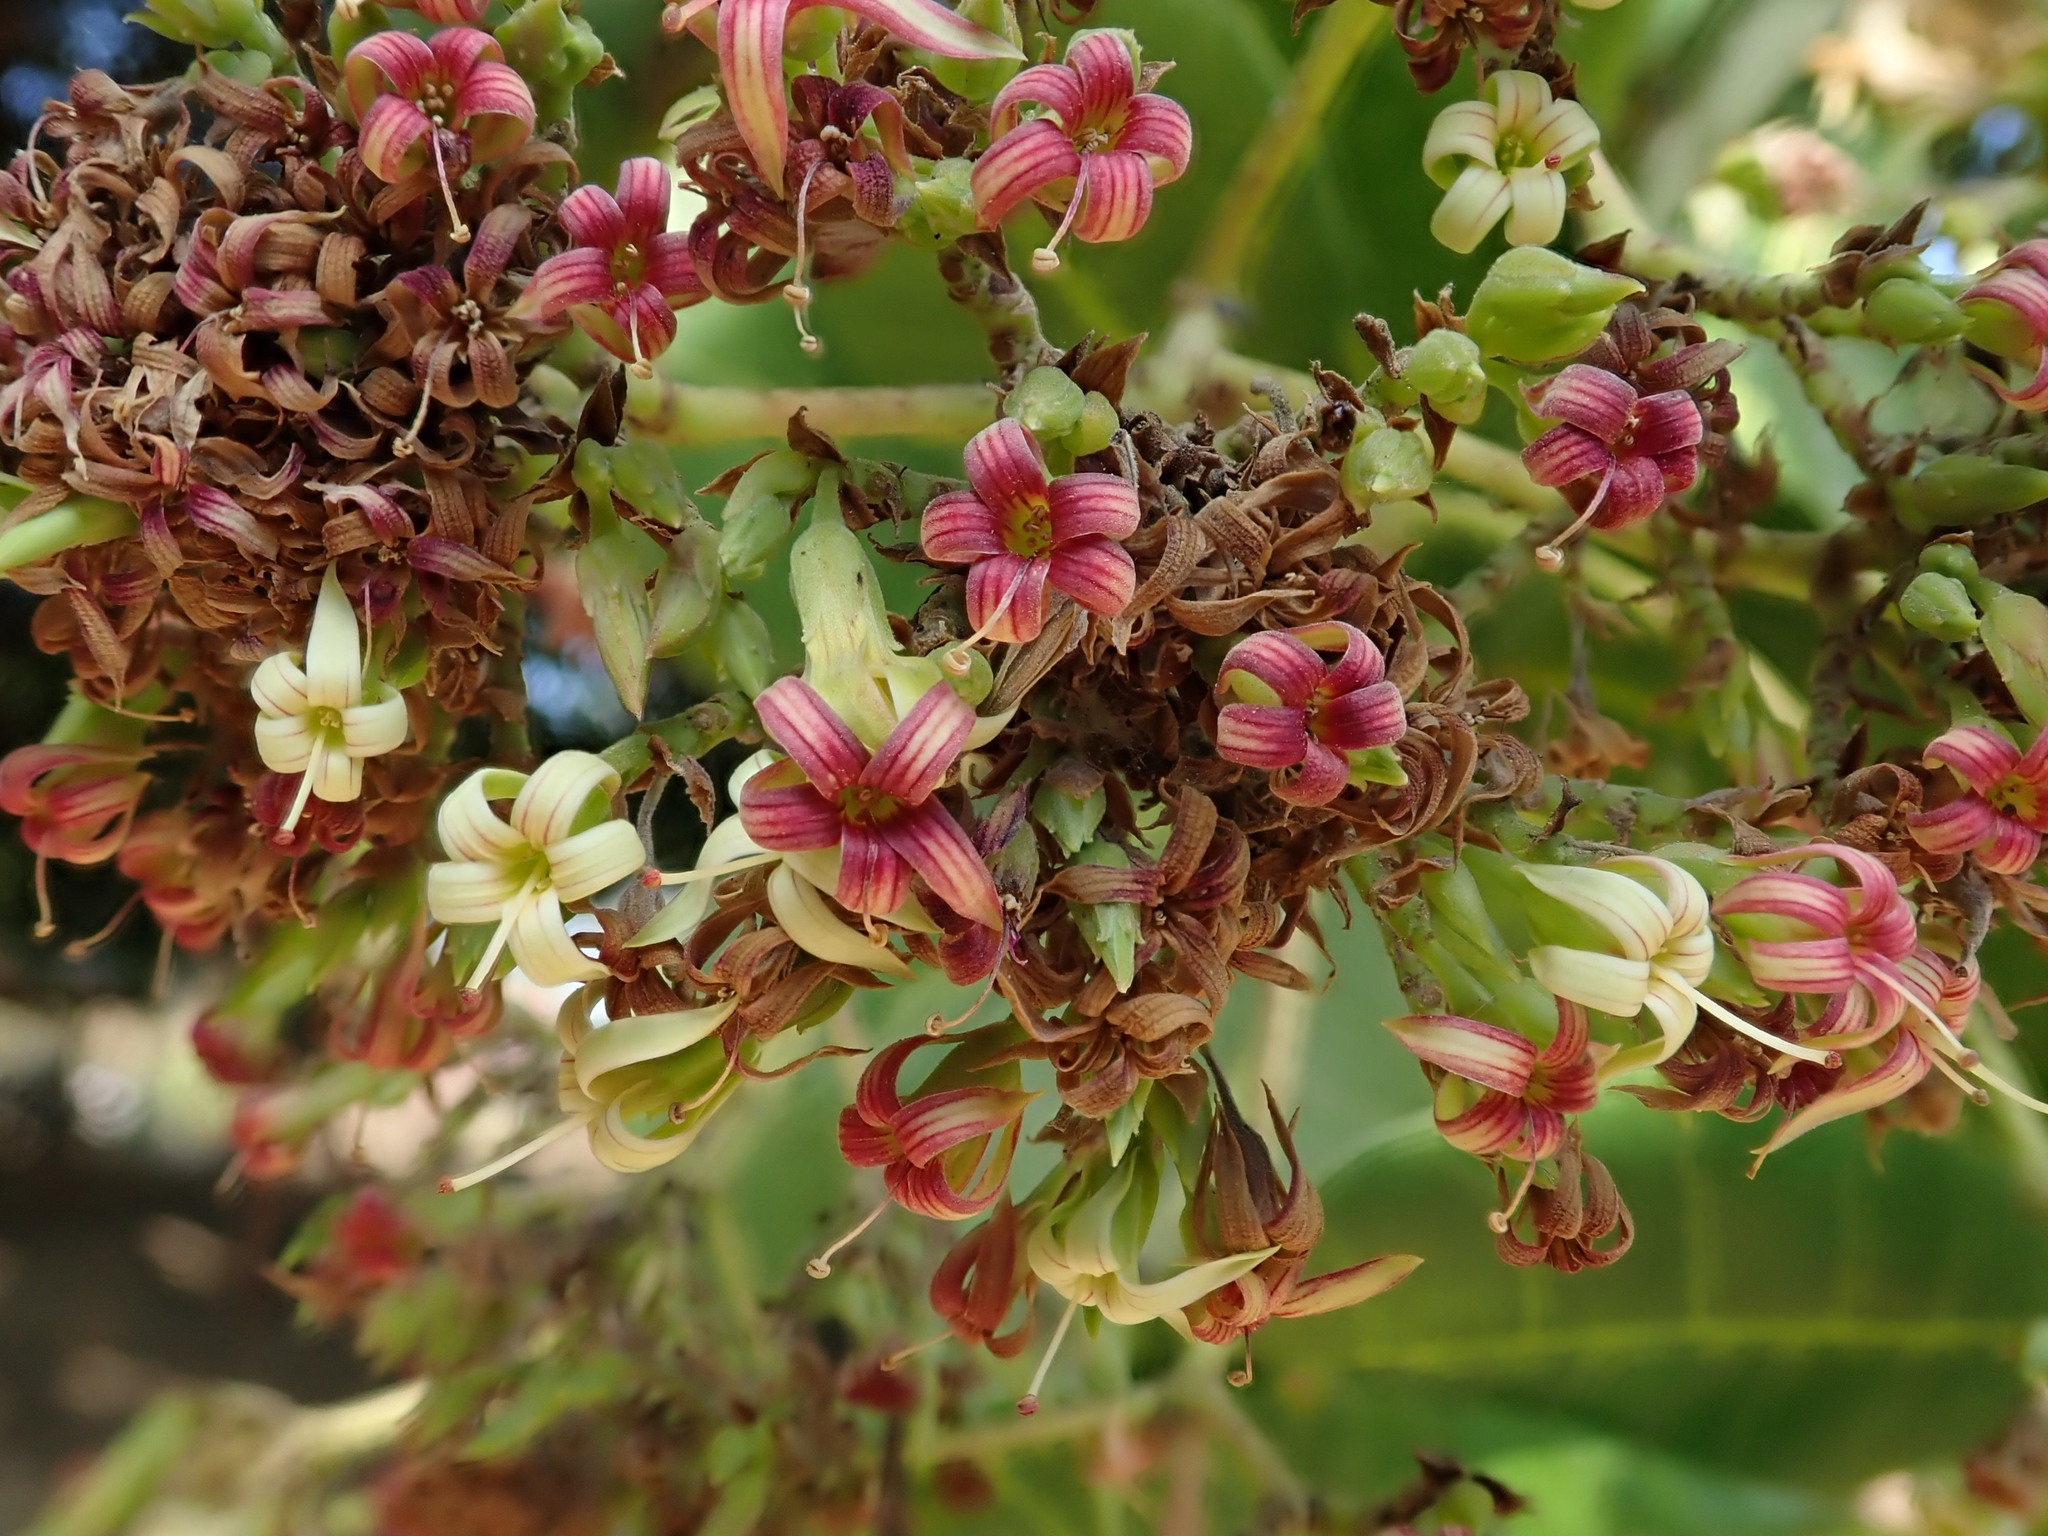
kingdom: Plantae
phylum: Tracheophyta
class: Magnoliopsida
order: Sapindales
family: Anacardiaceae
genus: Anacardium
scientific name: Anacardium occidentale
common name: Cashew
